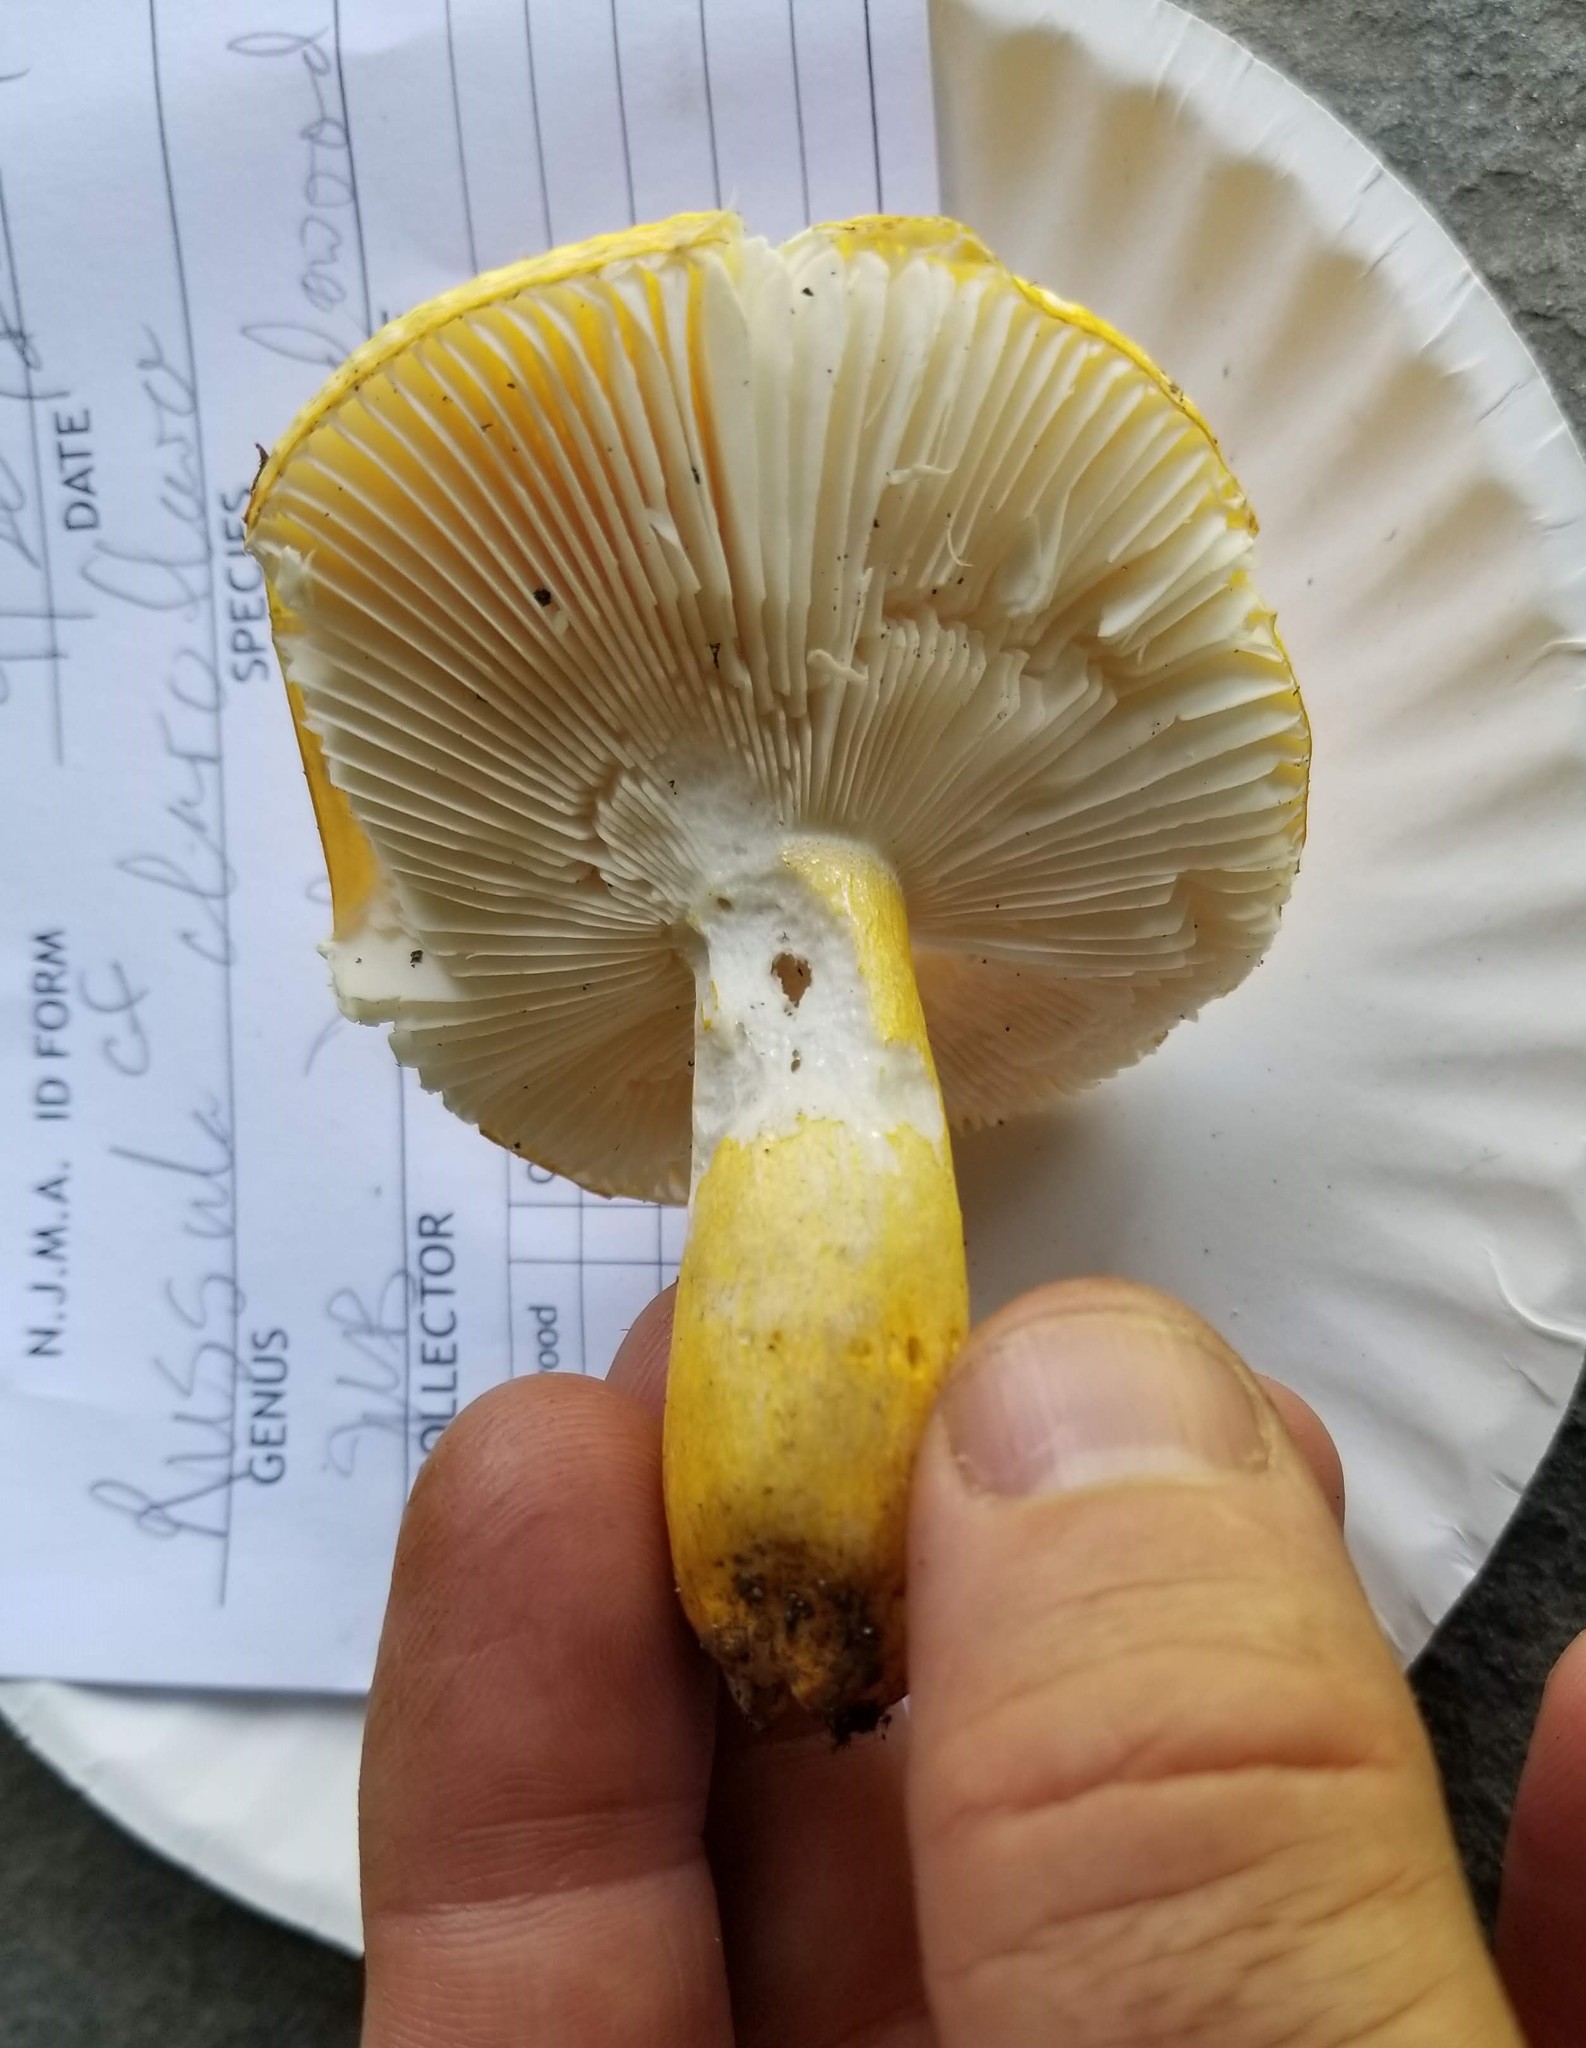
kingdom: Fungi
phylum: Basidiomycota
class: Agaricomycetes
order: Russulales
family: Russulaceae
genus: Russula
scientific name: Russula flavida
